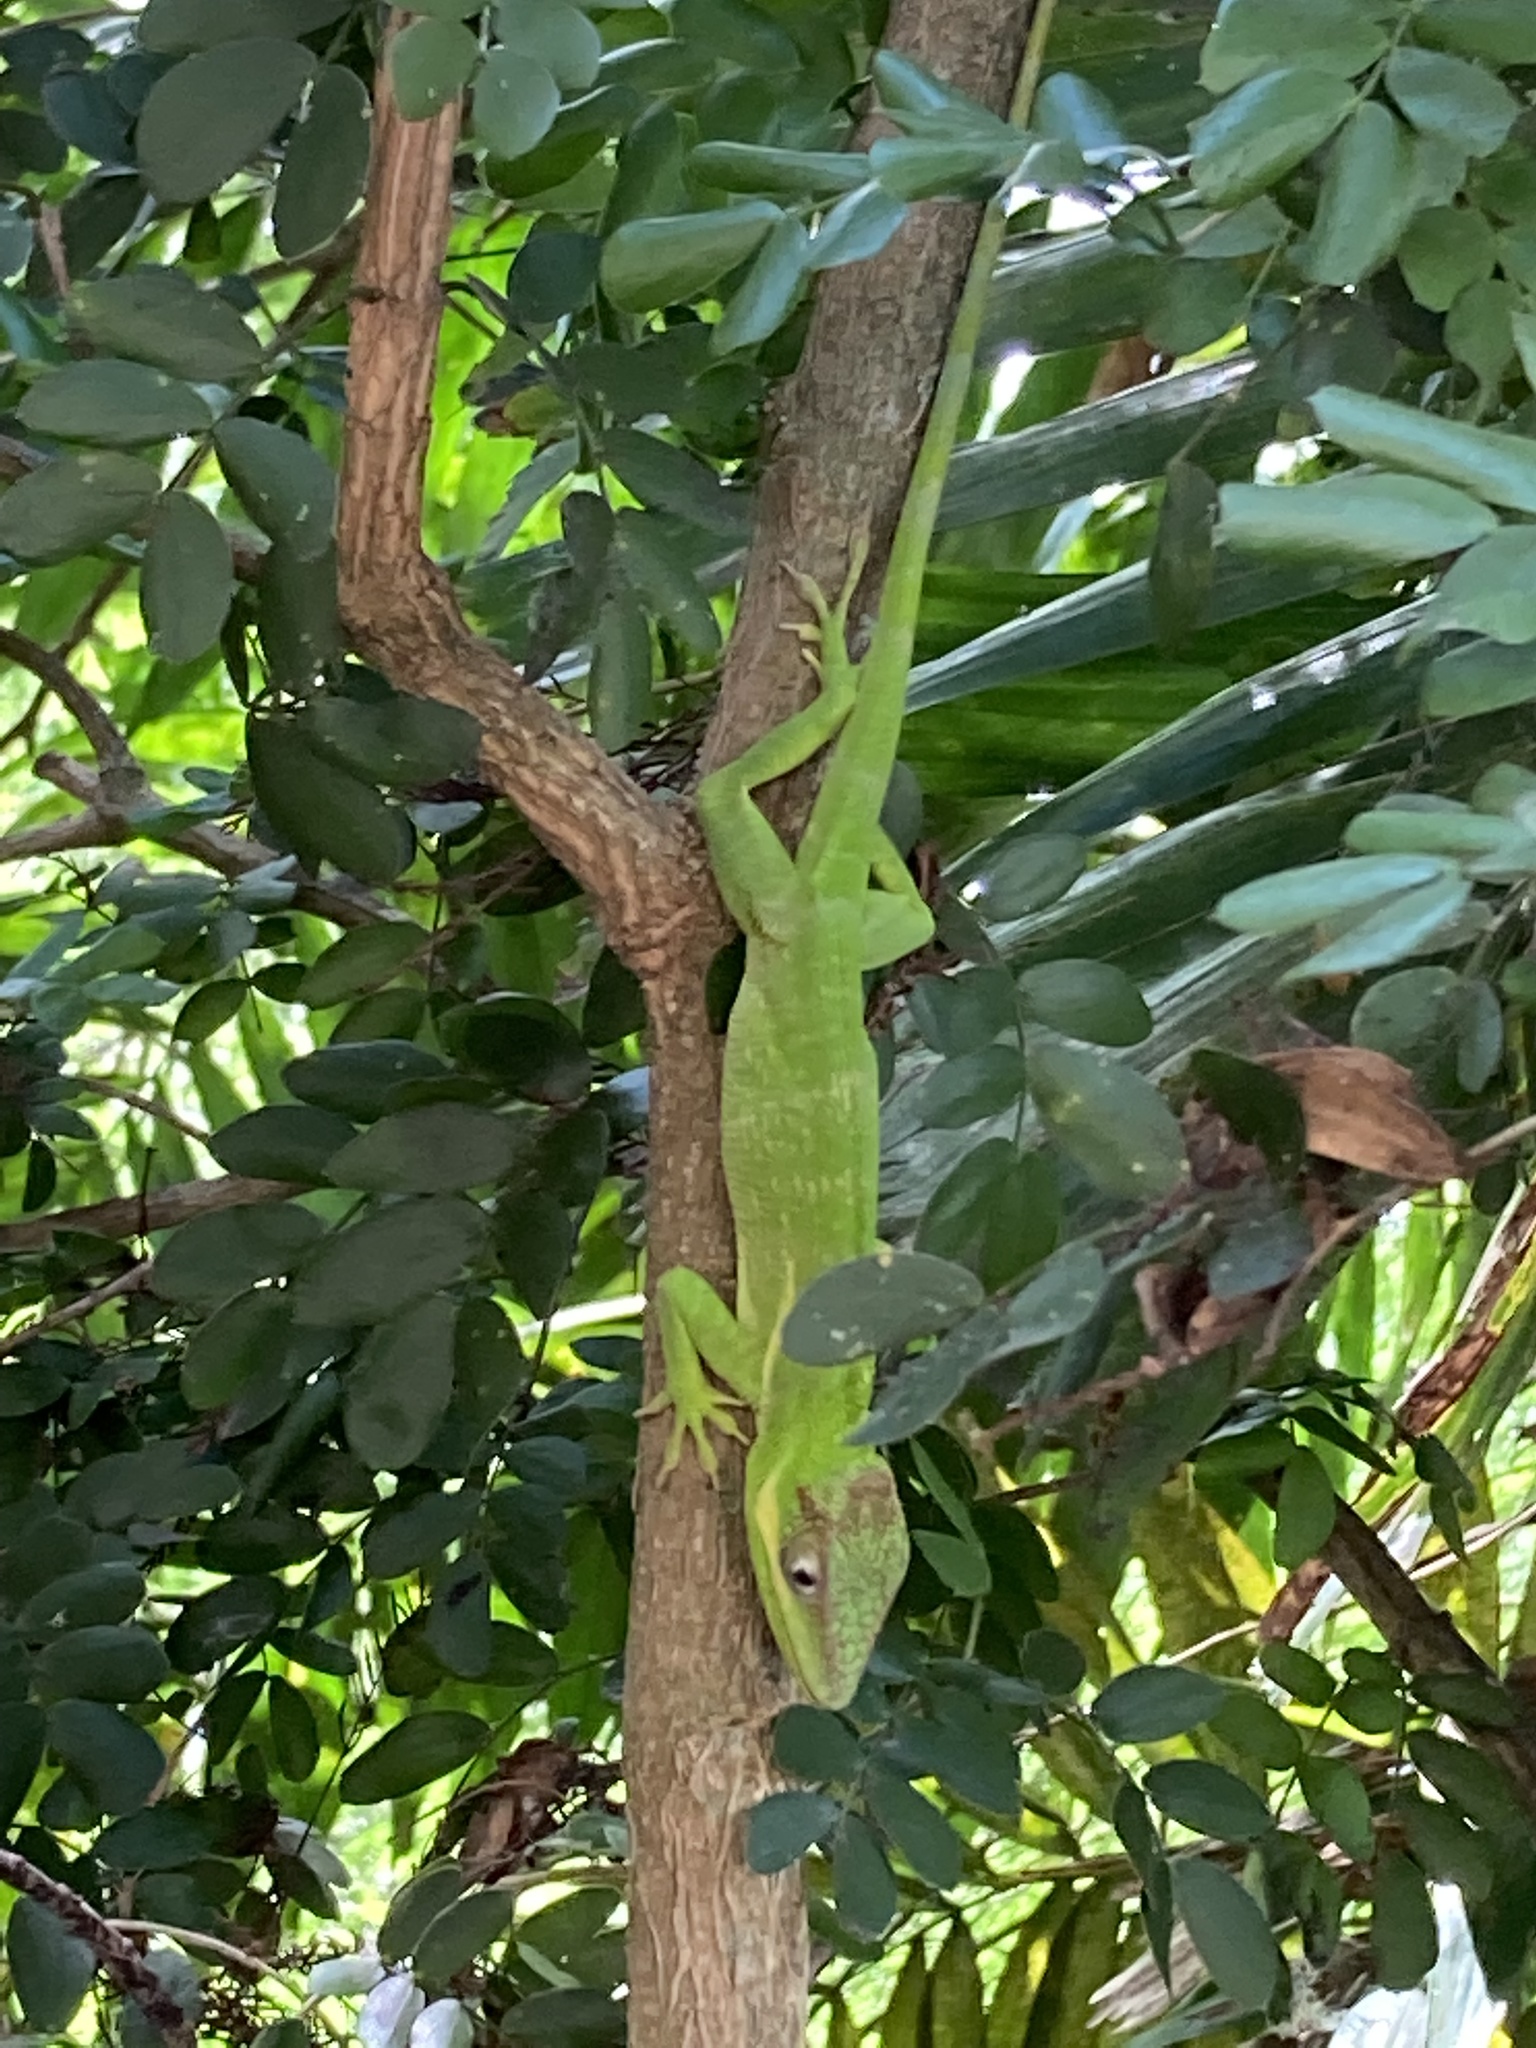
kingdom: Animalia
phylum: Chordata
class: Squamata
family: Dactyloidae
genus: Anolis
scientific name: Anolis equestris
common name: Knight anole
